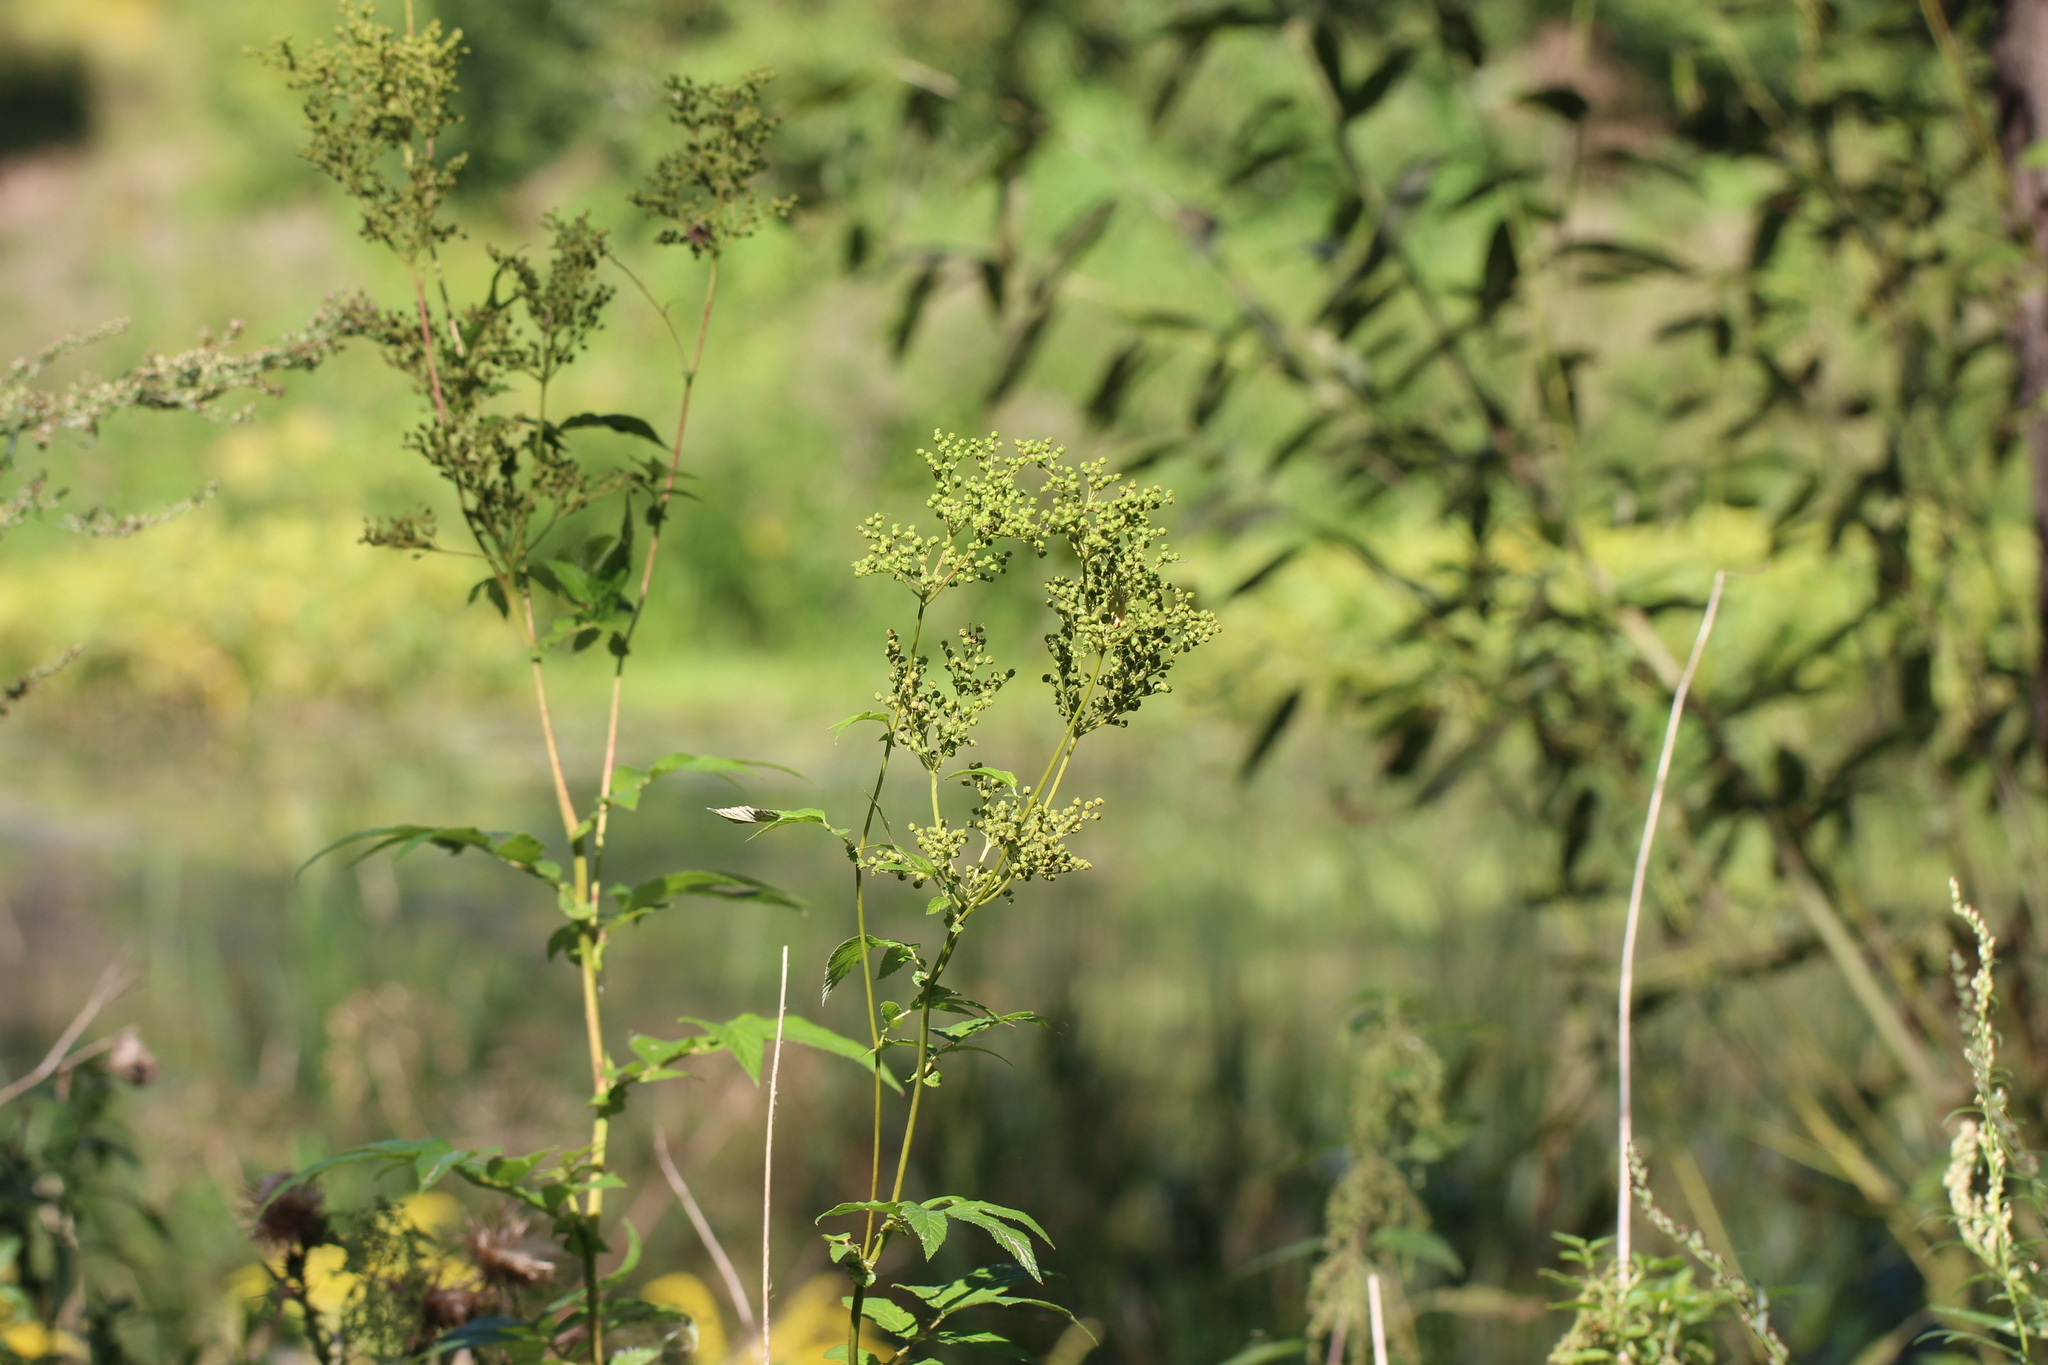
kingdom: Plantae
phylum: Tracheophyta
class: Magnoliopsida
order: Rosales
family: Rosaceae
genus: Filipendula
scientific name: Filipendula ulmaria
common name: Meadowsweet
